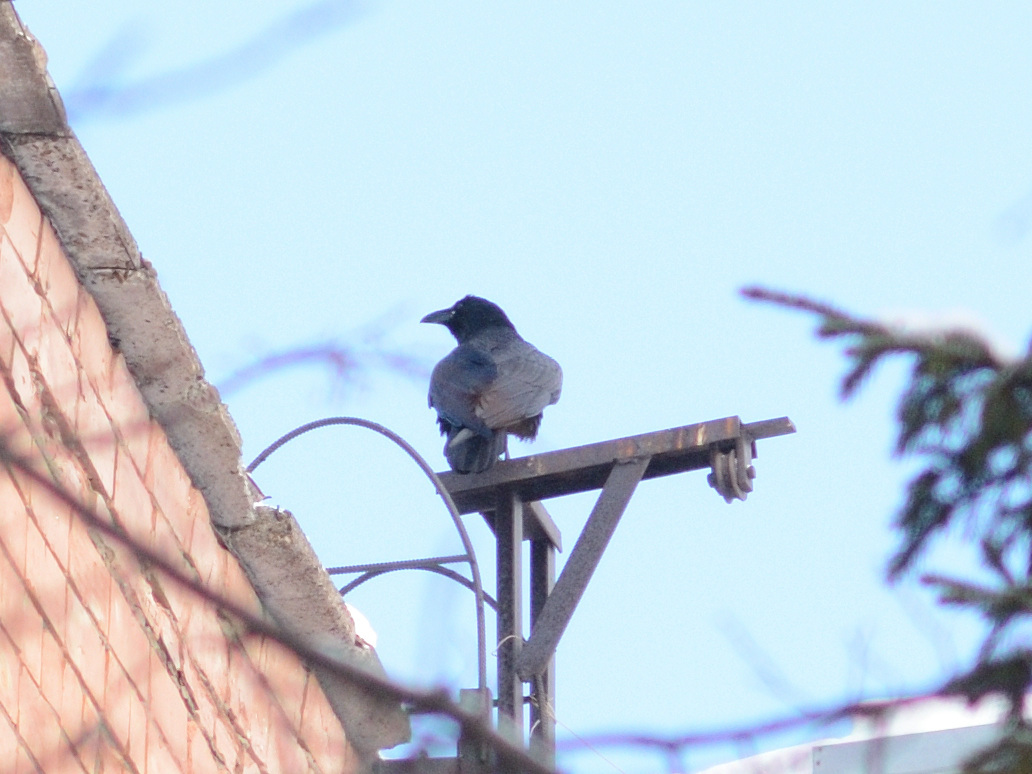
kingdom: Animalia
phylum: Chordata
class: Aves
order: Passeriformes
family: Corvidae
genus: Corvus
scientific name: Corvus corax
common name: Common raven
